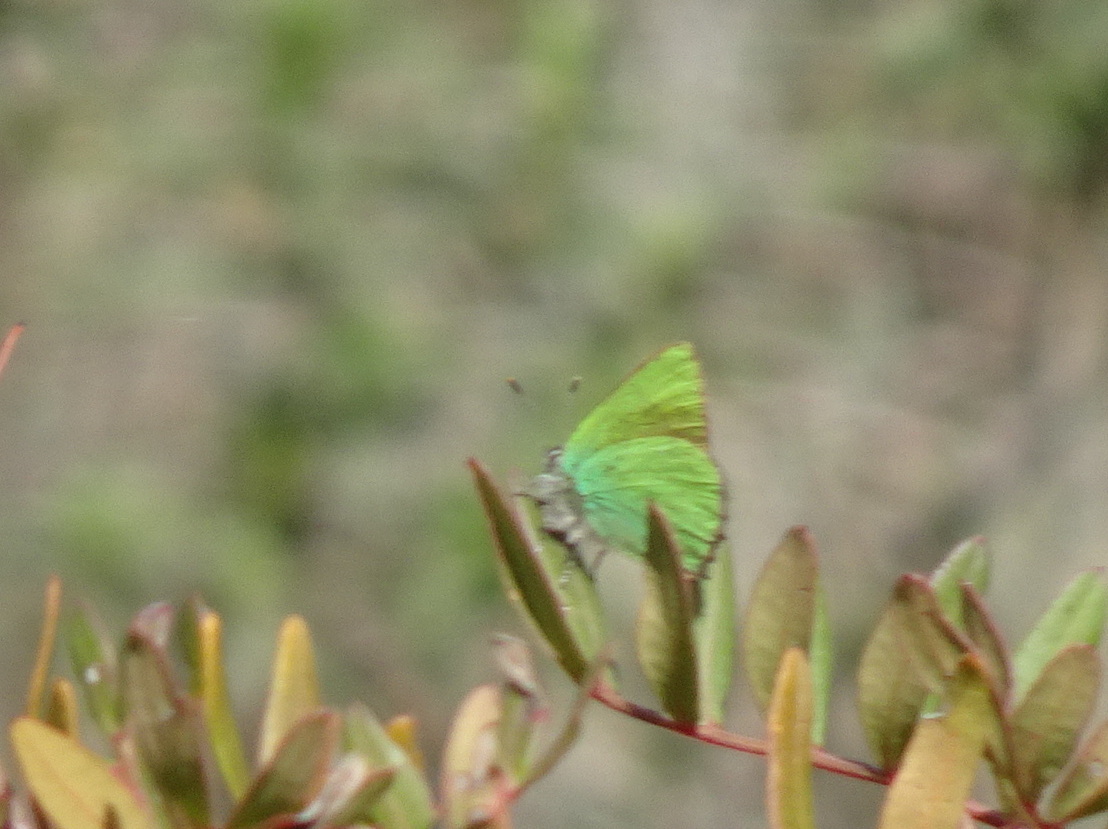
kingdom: Animalia
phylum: Arthropoda
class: Insecta
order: Lepidoptera
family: Lycaenidae
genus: Callophrys
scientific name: Callophrys rubi
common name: Green hairstreak
